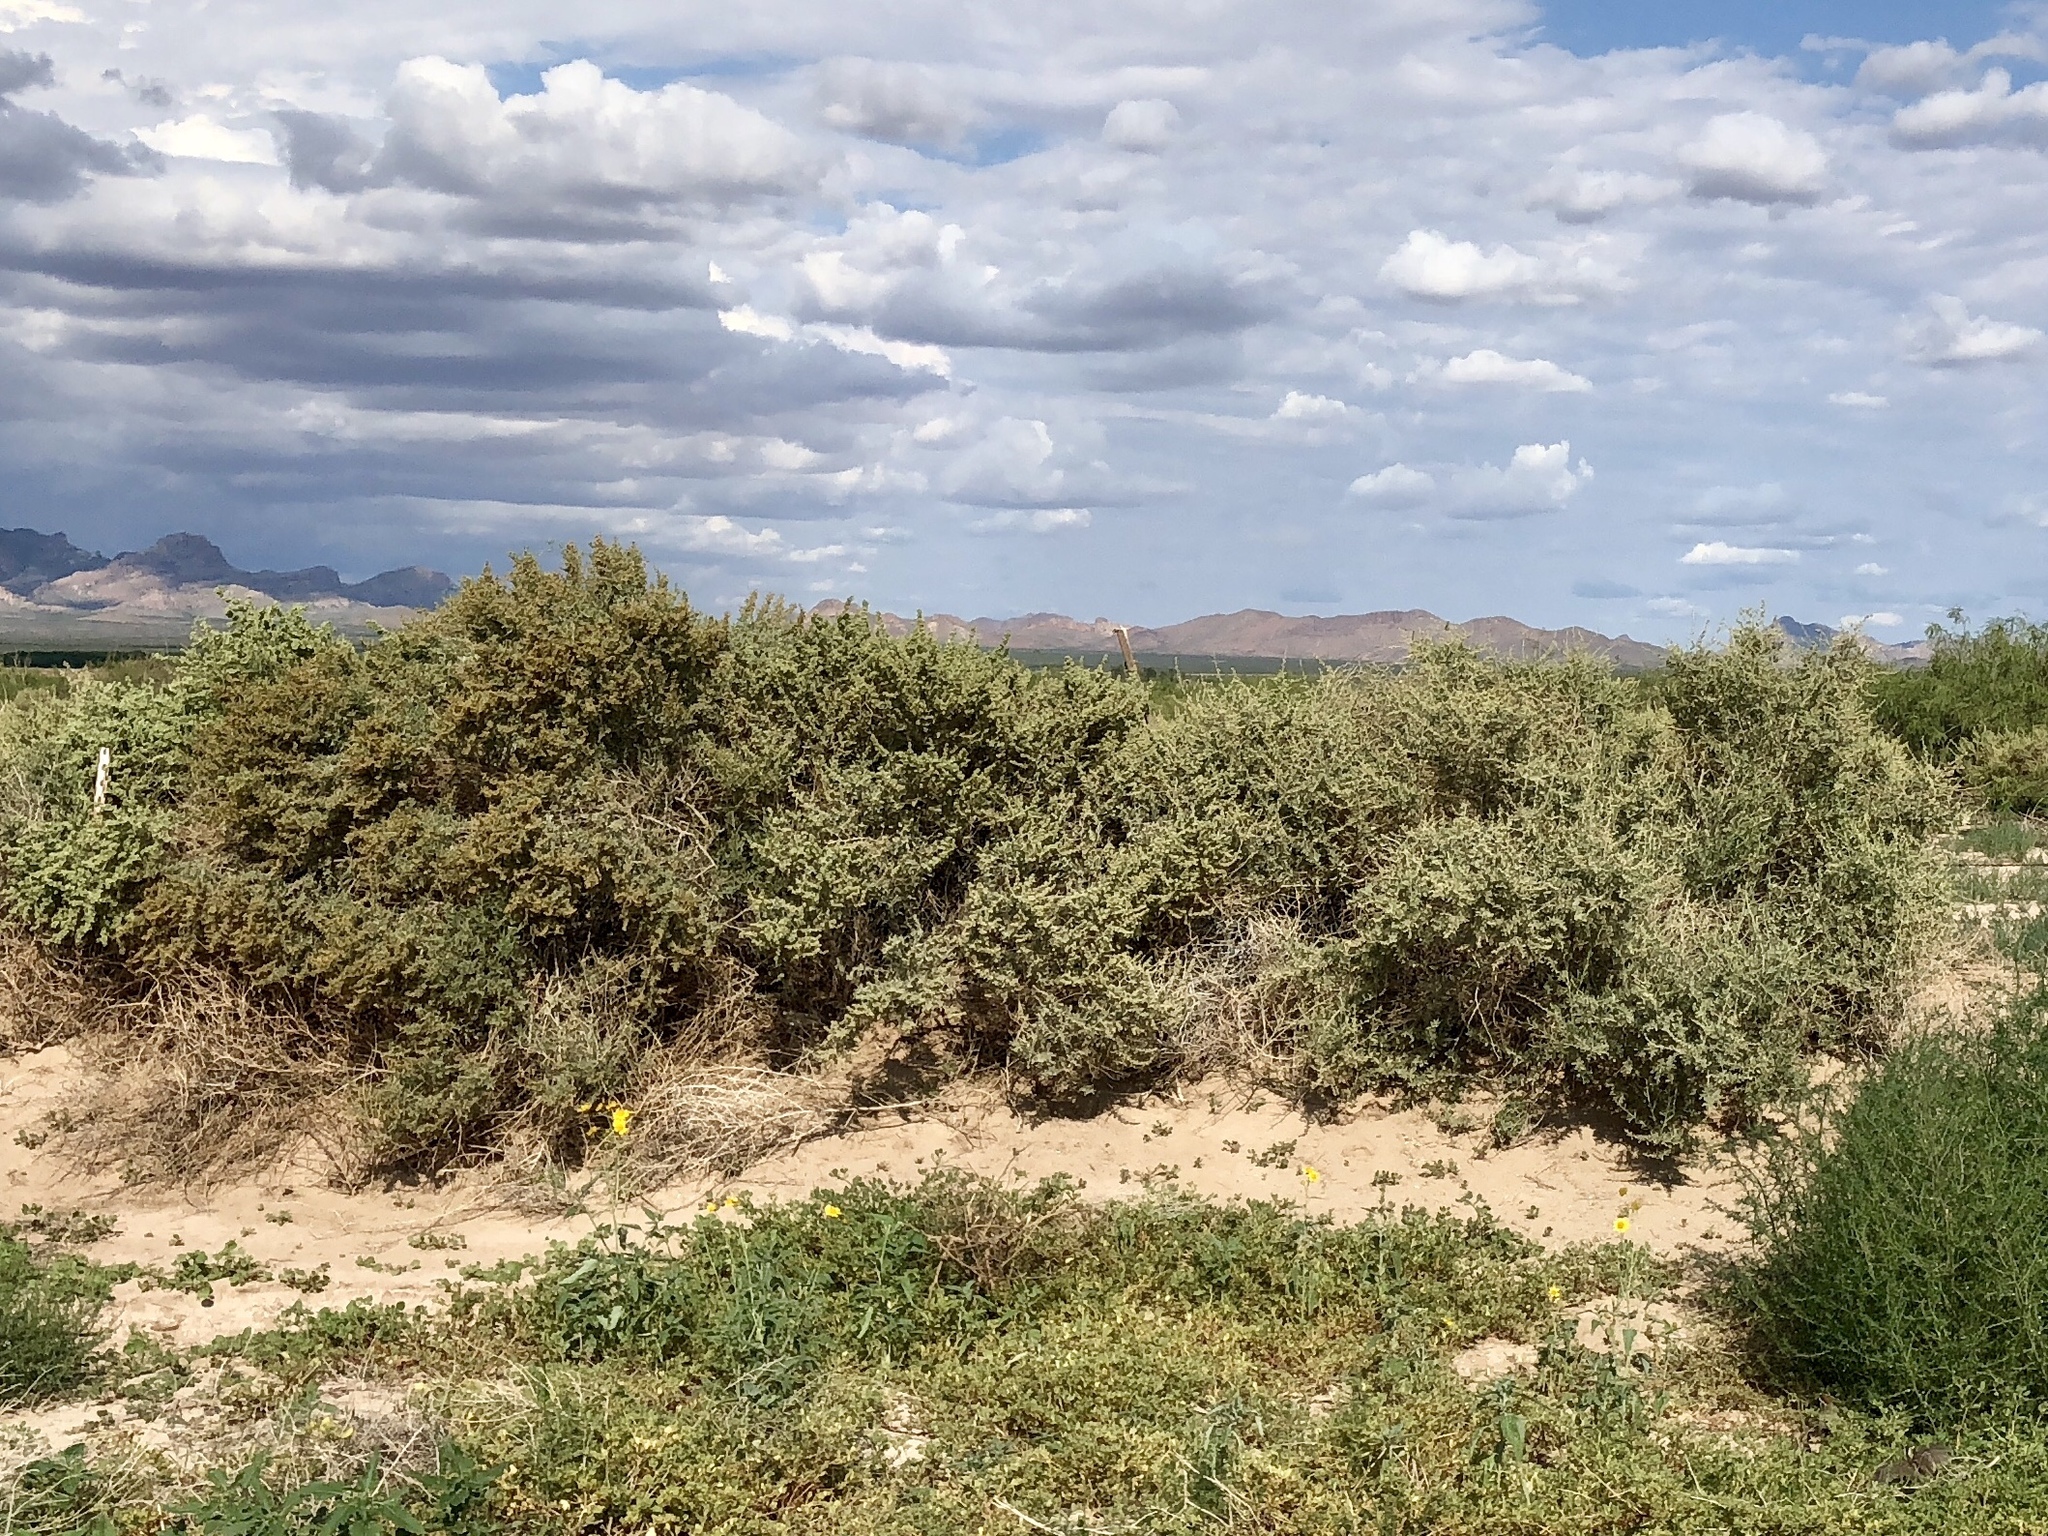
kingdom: Plantae
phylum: Tracheophyta
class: Magnoliopsida
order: Caryophyllales
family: Amaranthaceae
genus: Atriplex
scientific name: Atriplex canescens
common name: Four-wing saltbush
